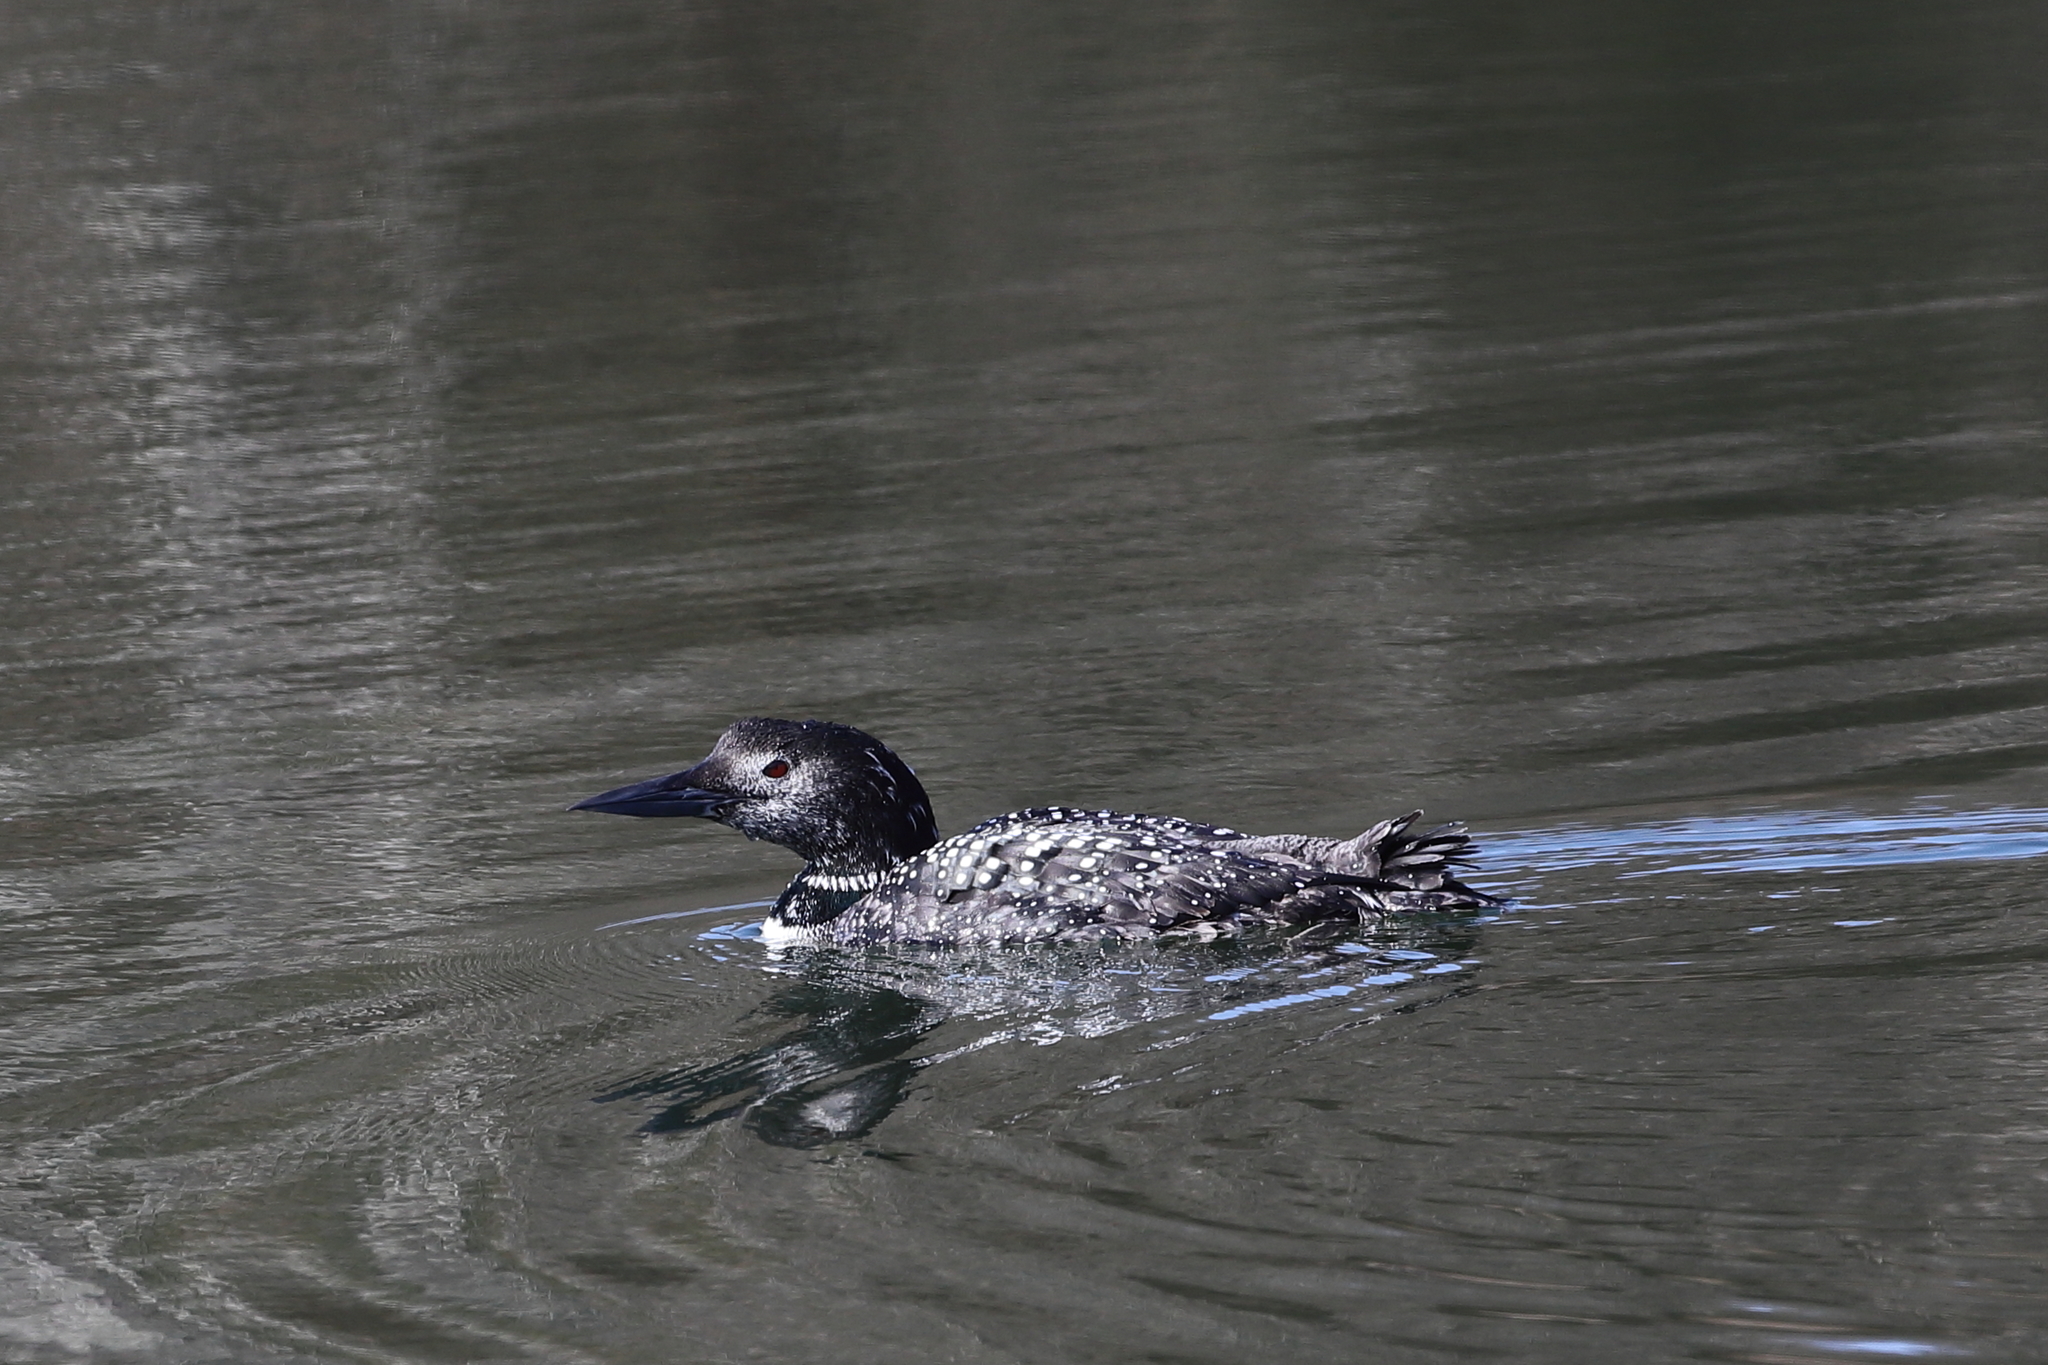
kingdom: Animalia
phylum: Chordata
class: Aves
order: Gaviiformes
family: Gaviidae
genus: Gavia
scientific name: Gavia immer
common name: Common loon
